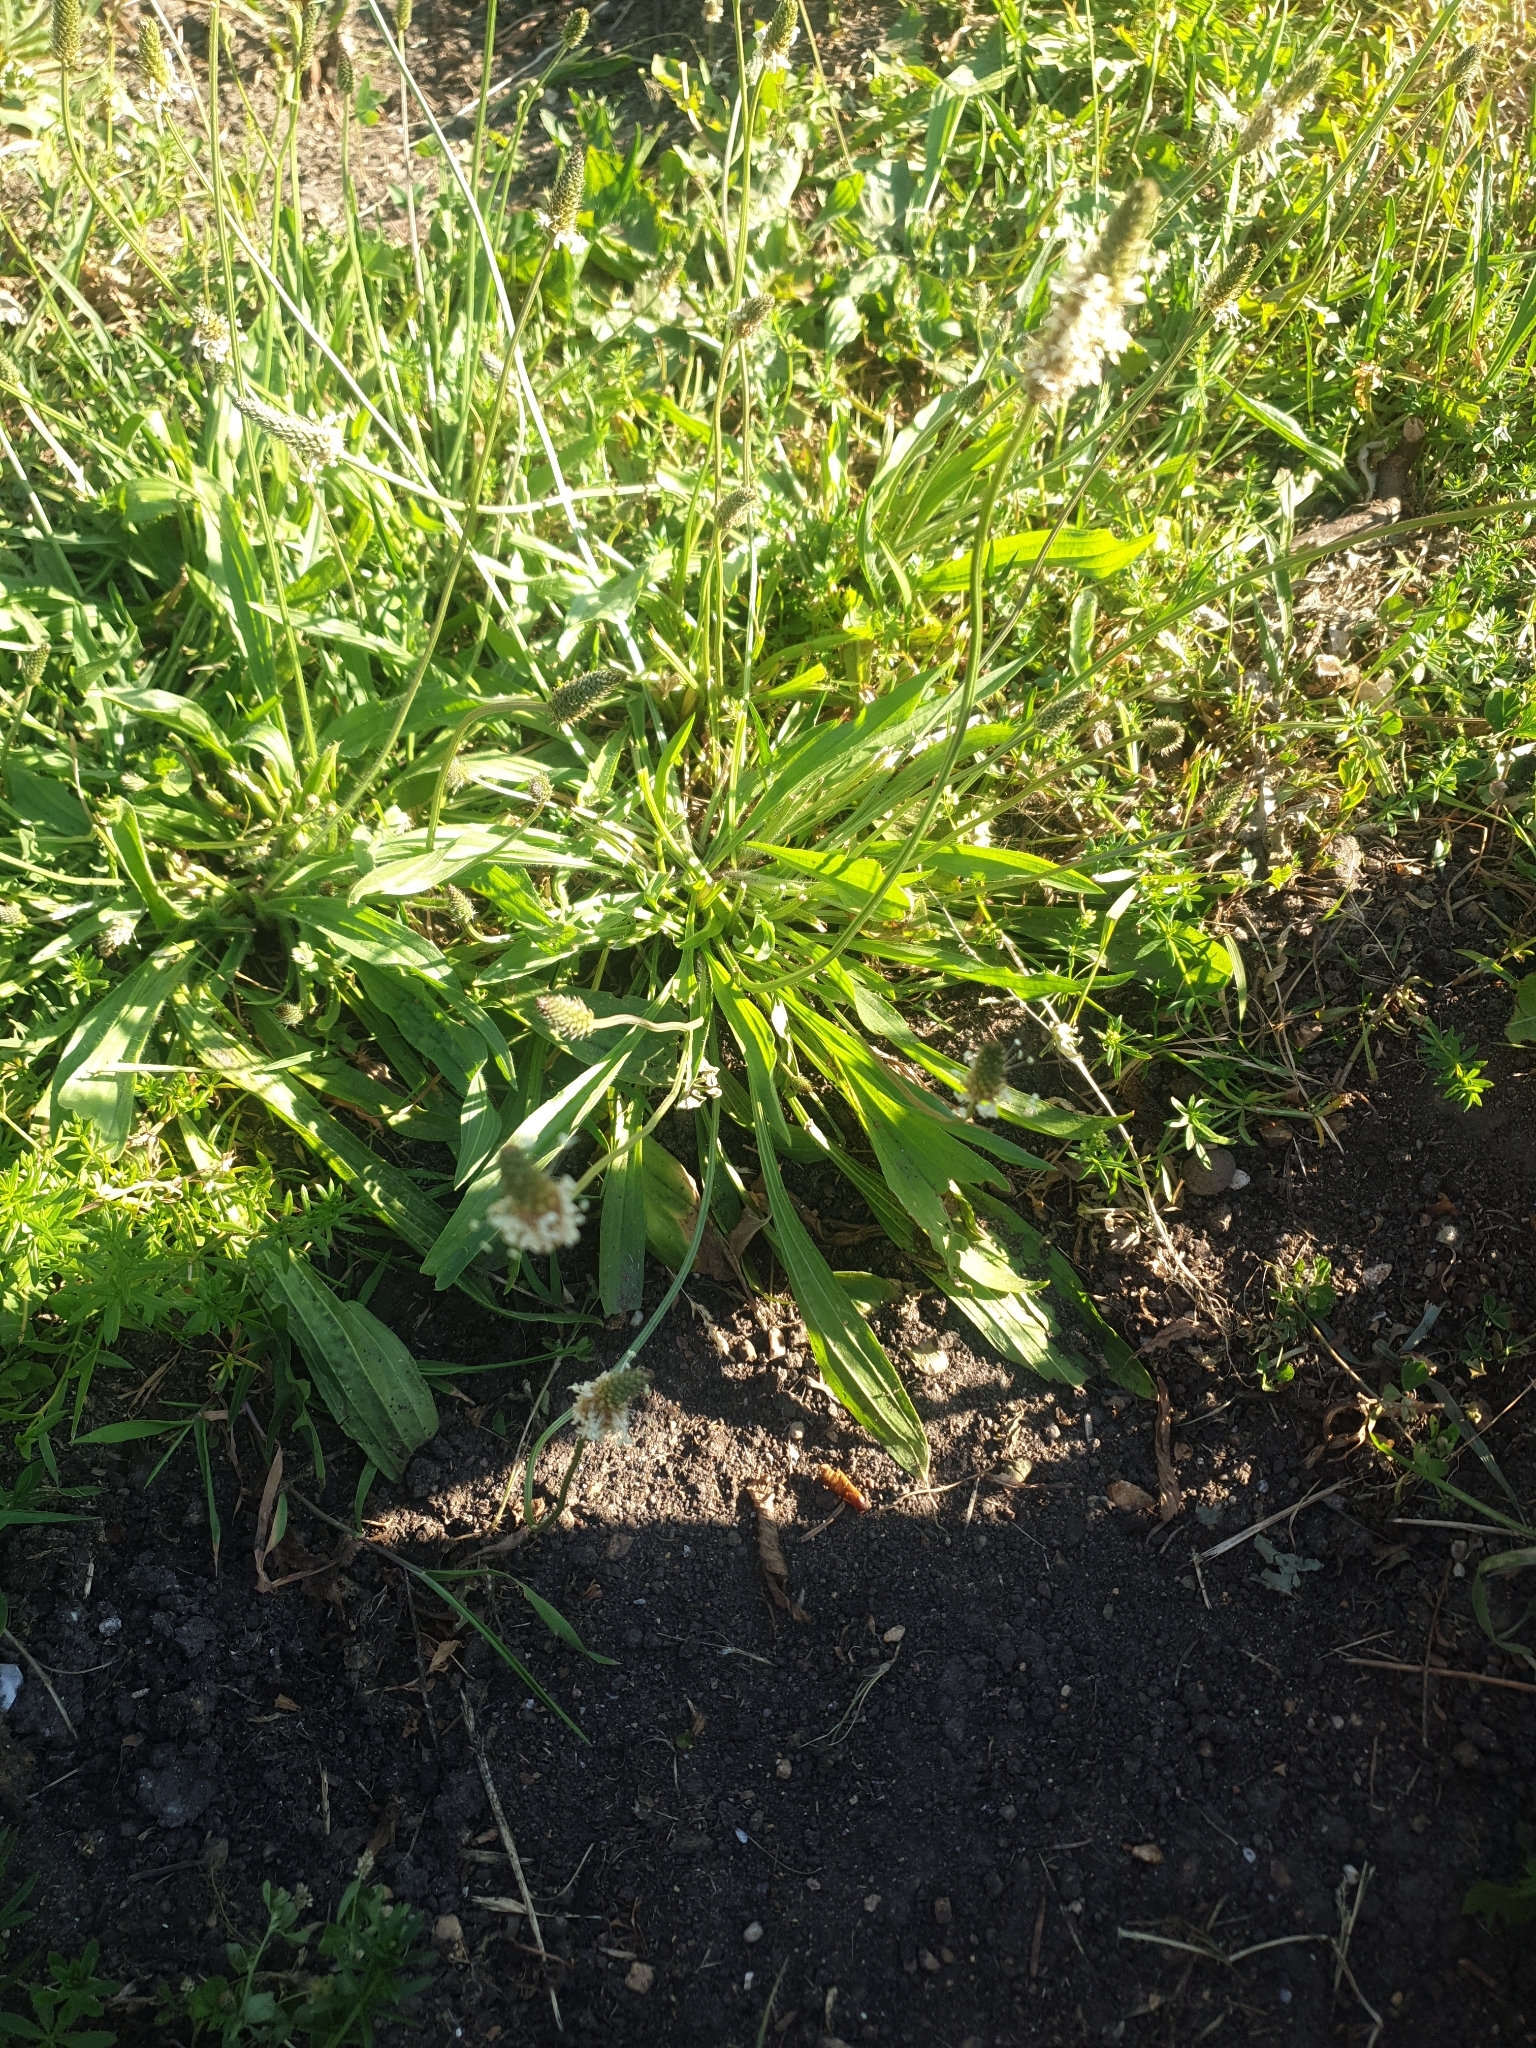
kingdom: Plantae
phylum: Tracheophyta
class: Magnoliopsida
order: Lamiales
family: Plantaginaceae
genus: Plantago
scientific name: Plantago lanceolata
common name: Ribwort plantain
